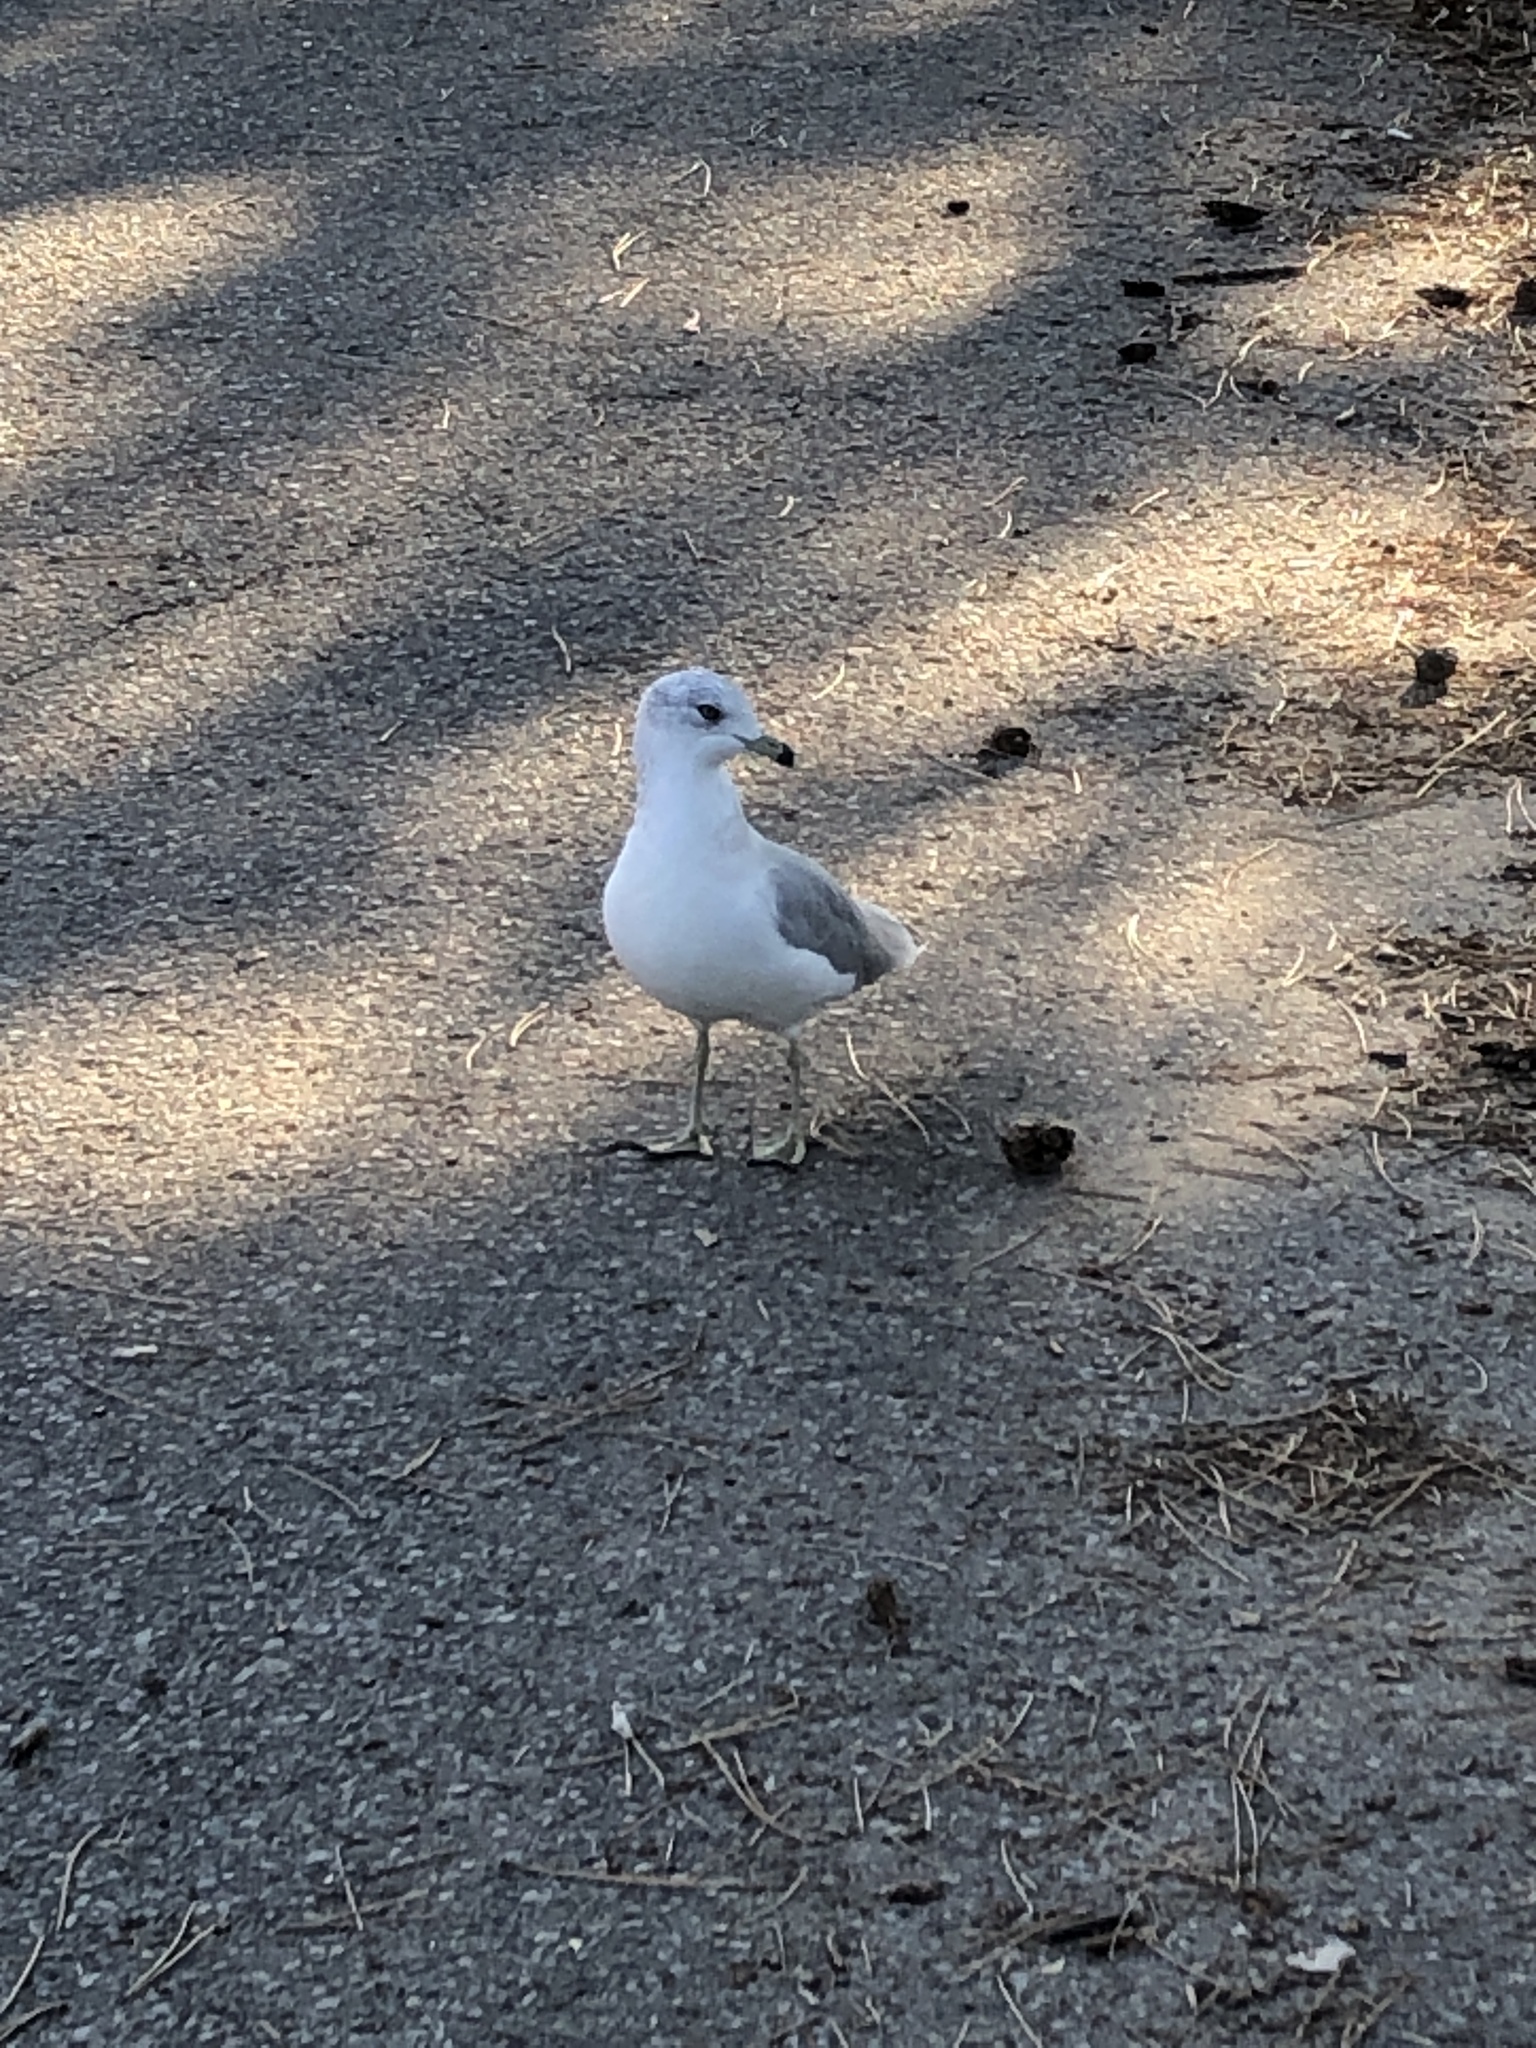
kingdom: Animalia
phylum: Chordata
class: Aves
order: Charadriiformes
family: Laridae
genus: Larus
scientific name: Larus delawarensis
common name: Ring-billed gull
